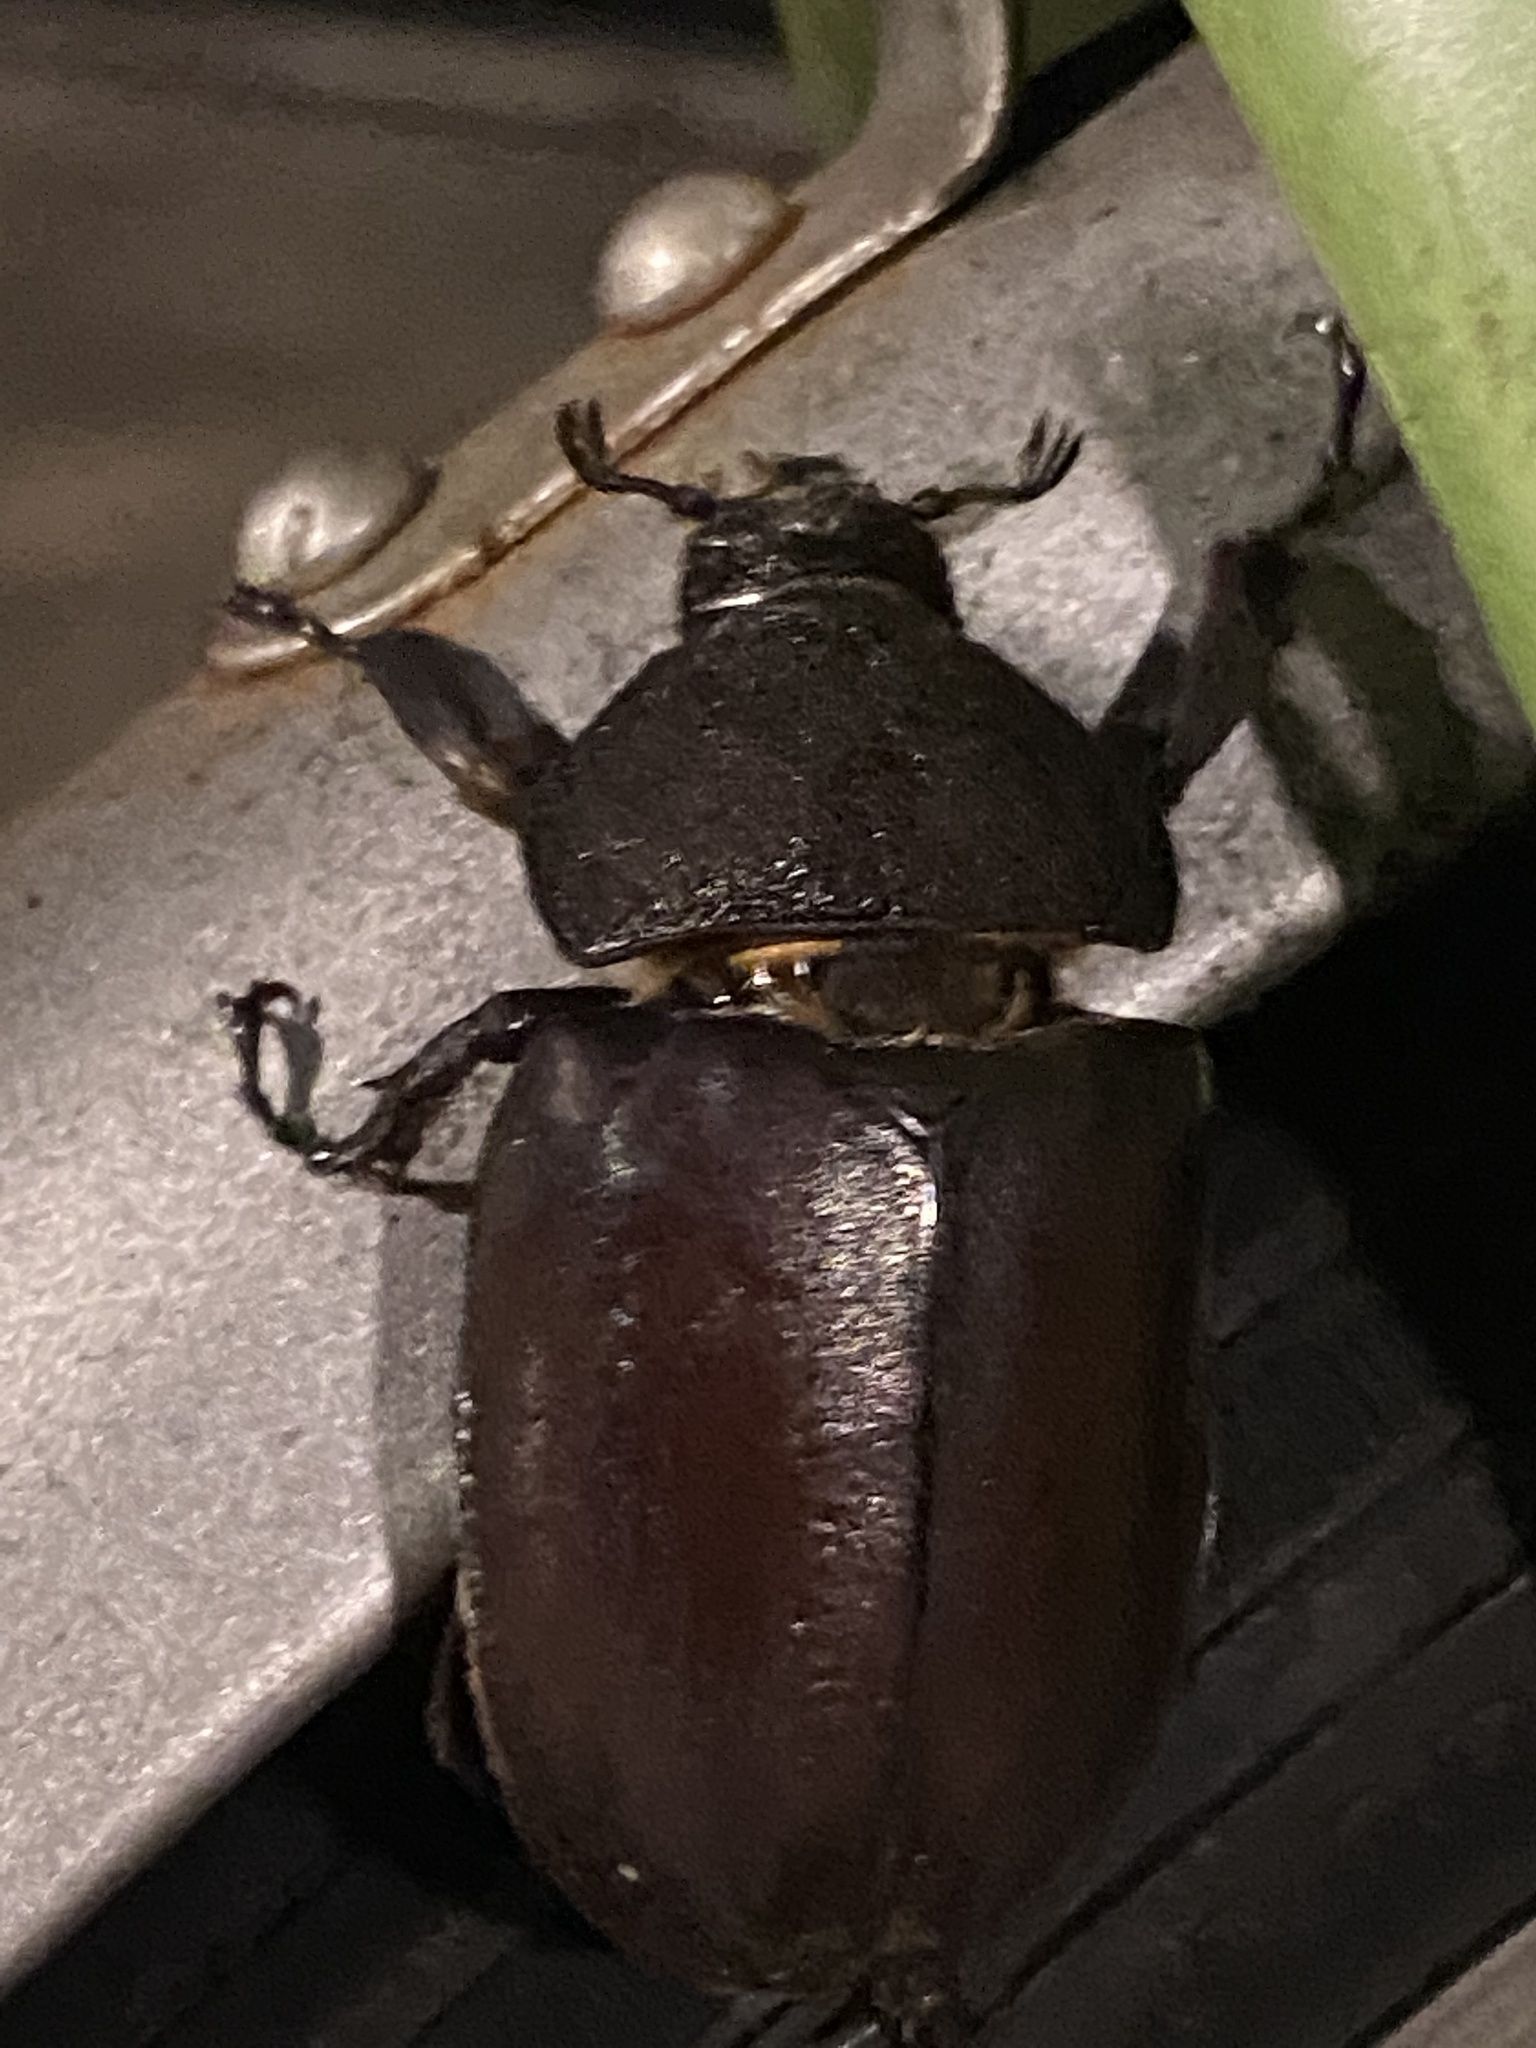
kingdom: Animalia
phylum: Arthropoda
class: Insecta
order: Coleoptera
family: Scarabaeidae
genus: Trypoxylus
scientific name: Trypoxylus dichotomus
